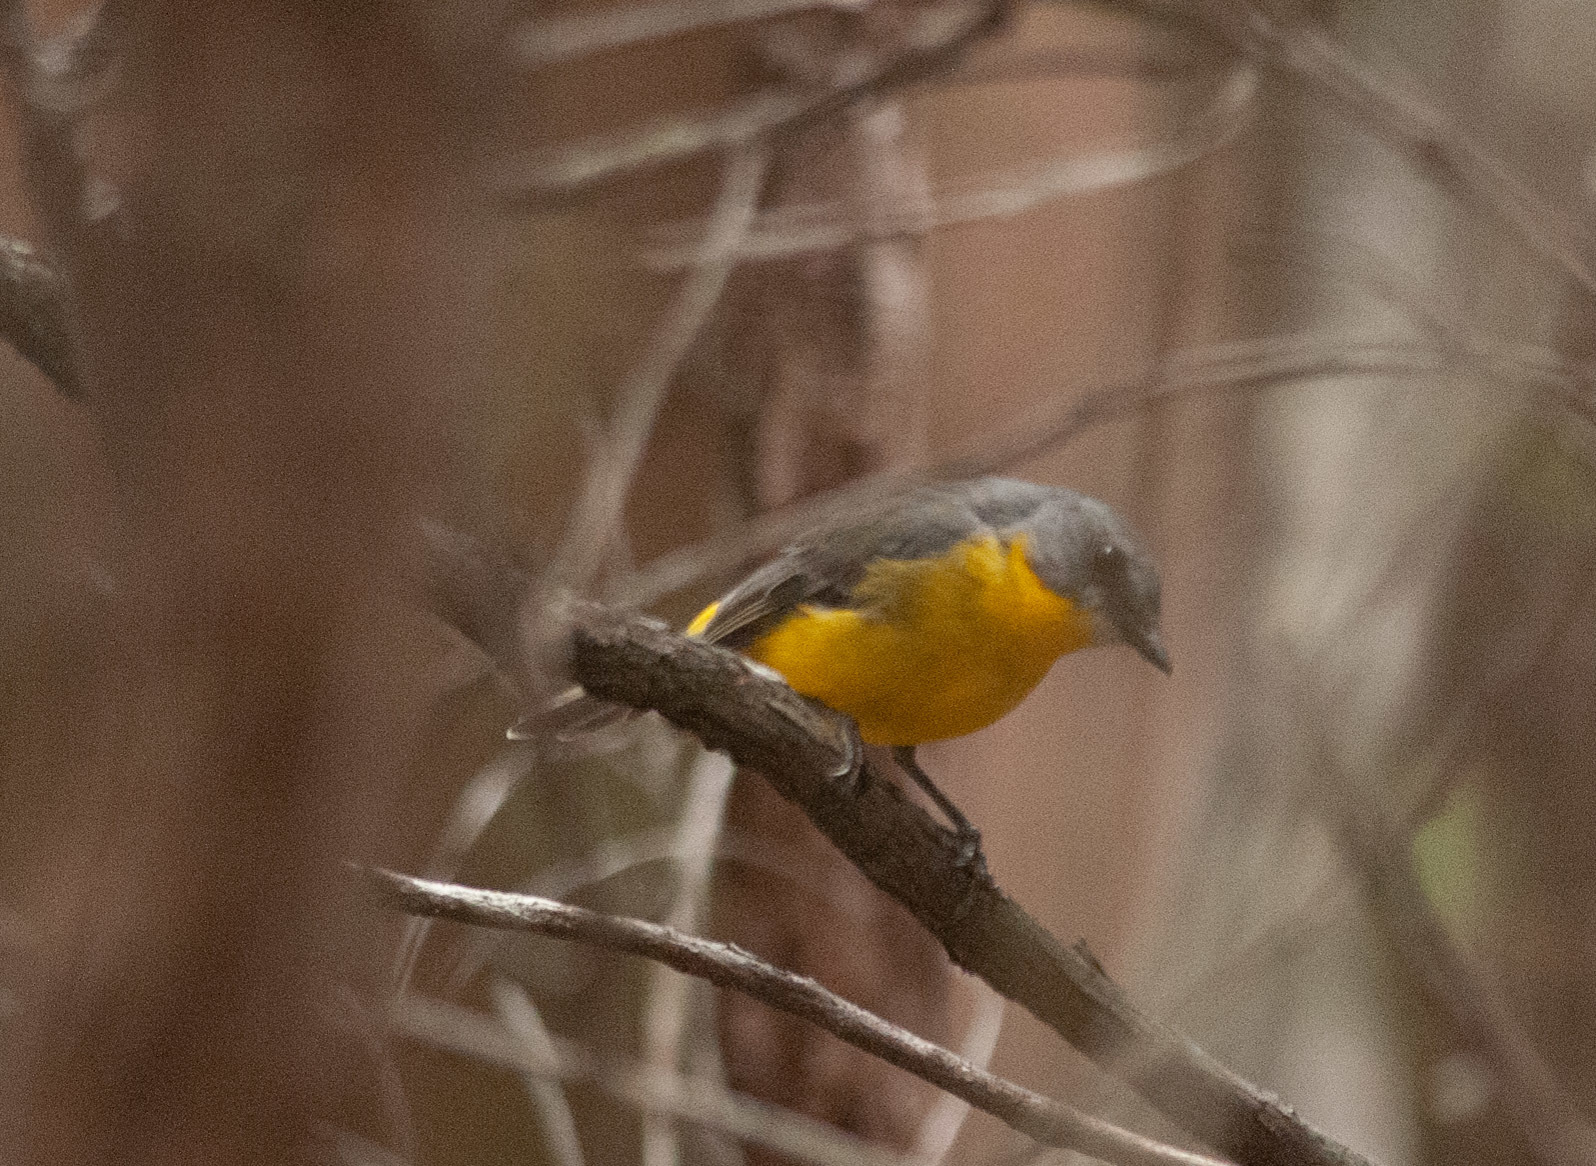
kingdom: Animalia
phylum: Chordata
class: Aves
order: Passeriformes
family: Petroicidae
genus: Eopsaltria
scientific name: Eopsaltria australis
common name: Eastern yellow robin
